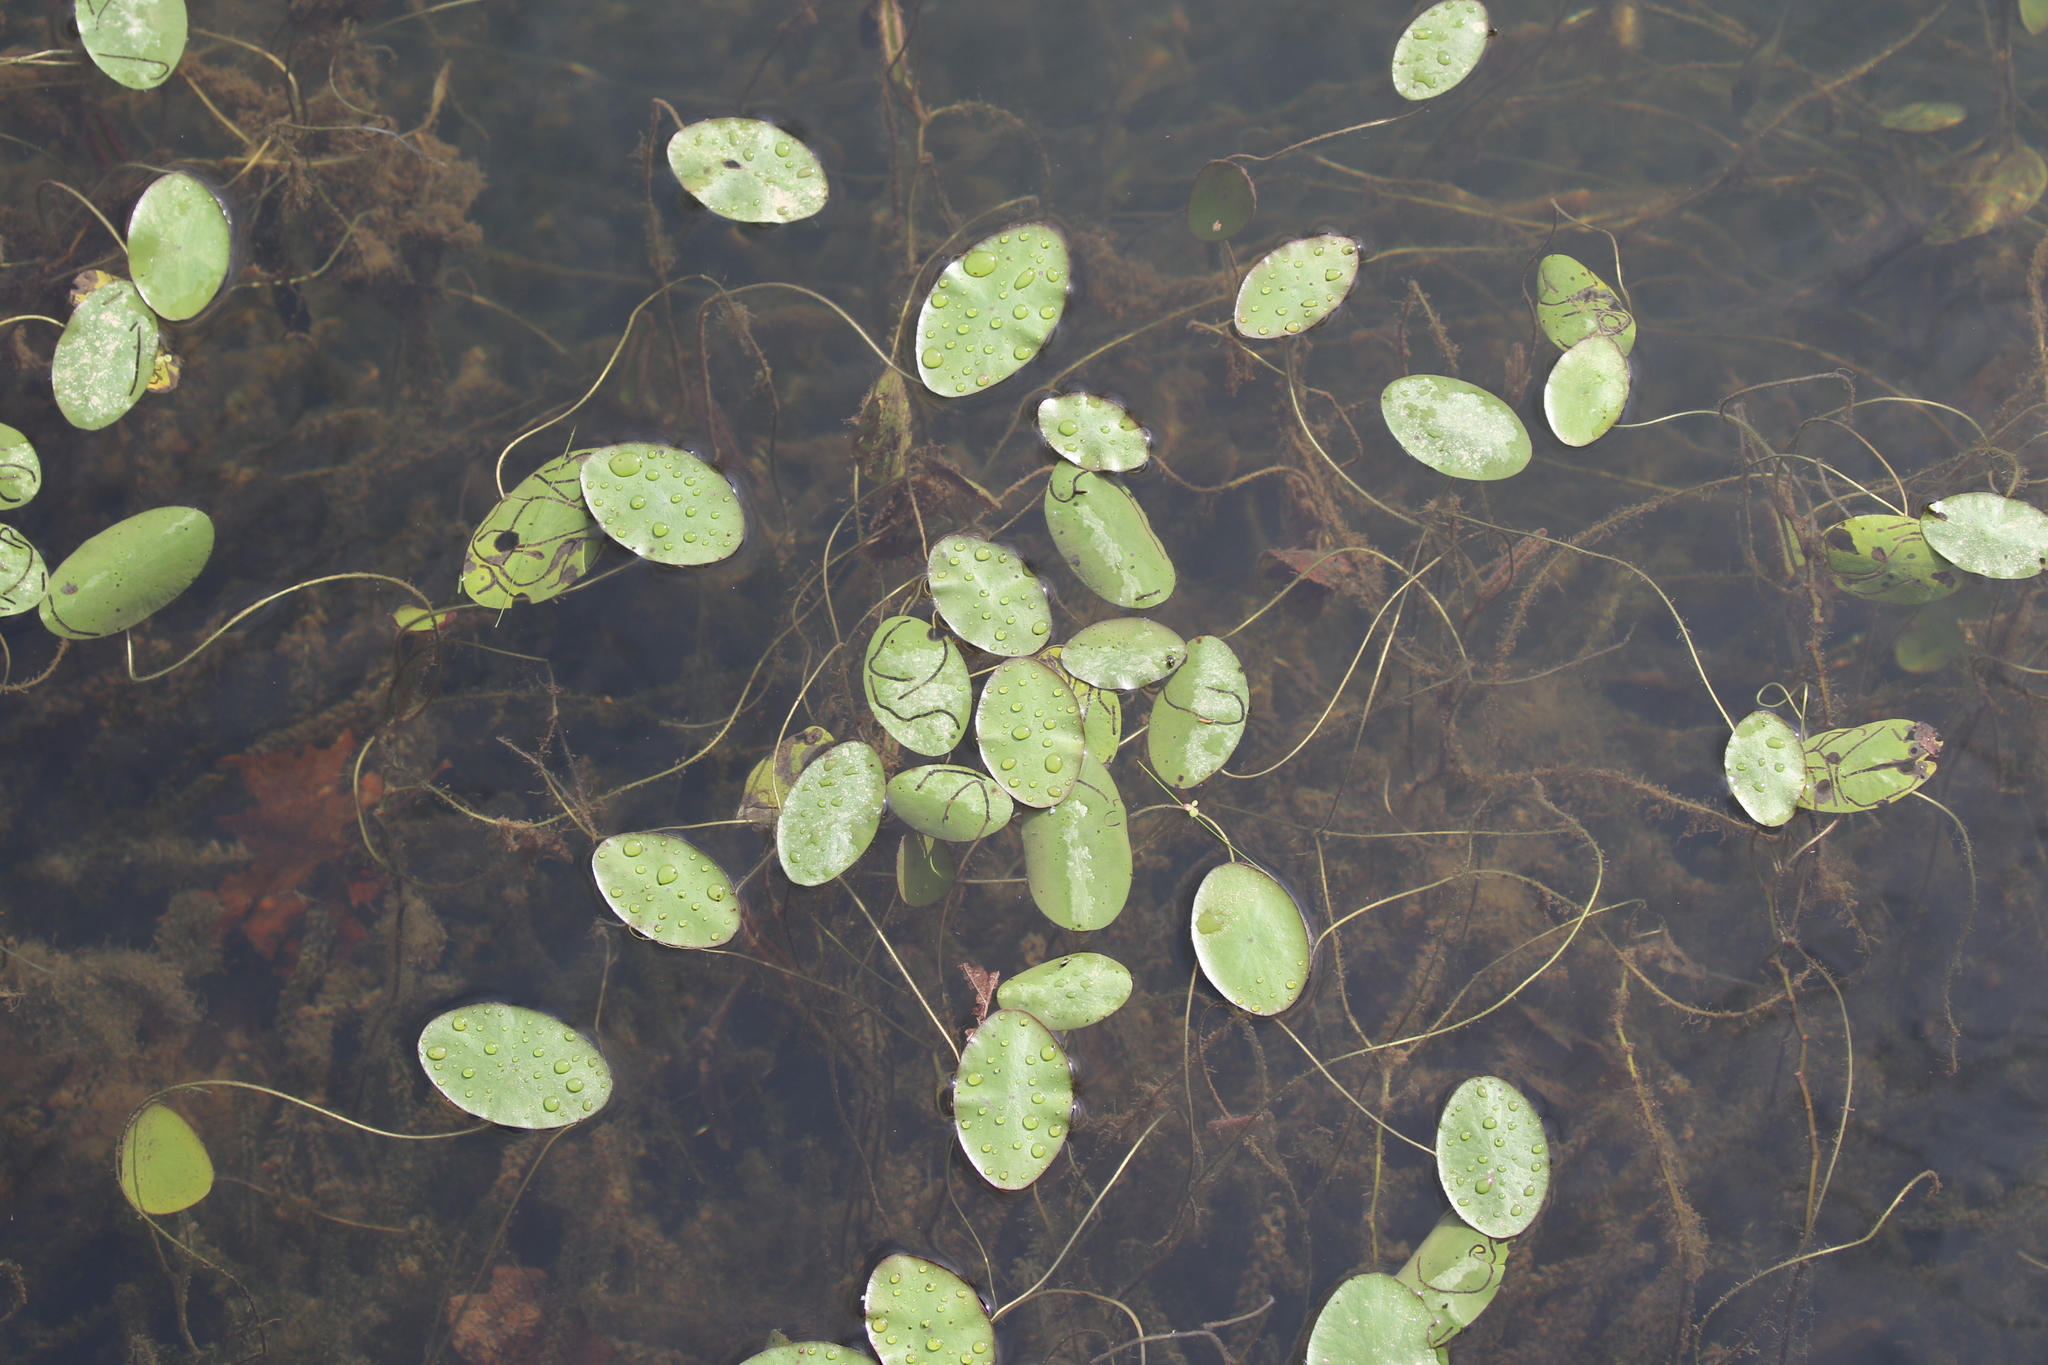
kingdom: Plantae
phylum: Tracheophyta
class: Magnoliopsida
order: Nymphaeales
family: Cabombaceae
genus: Brasenia
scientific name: Brasenia schreberi
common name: Water-shield
